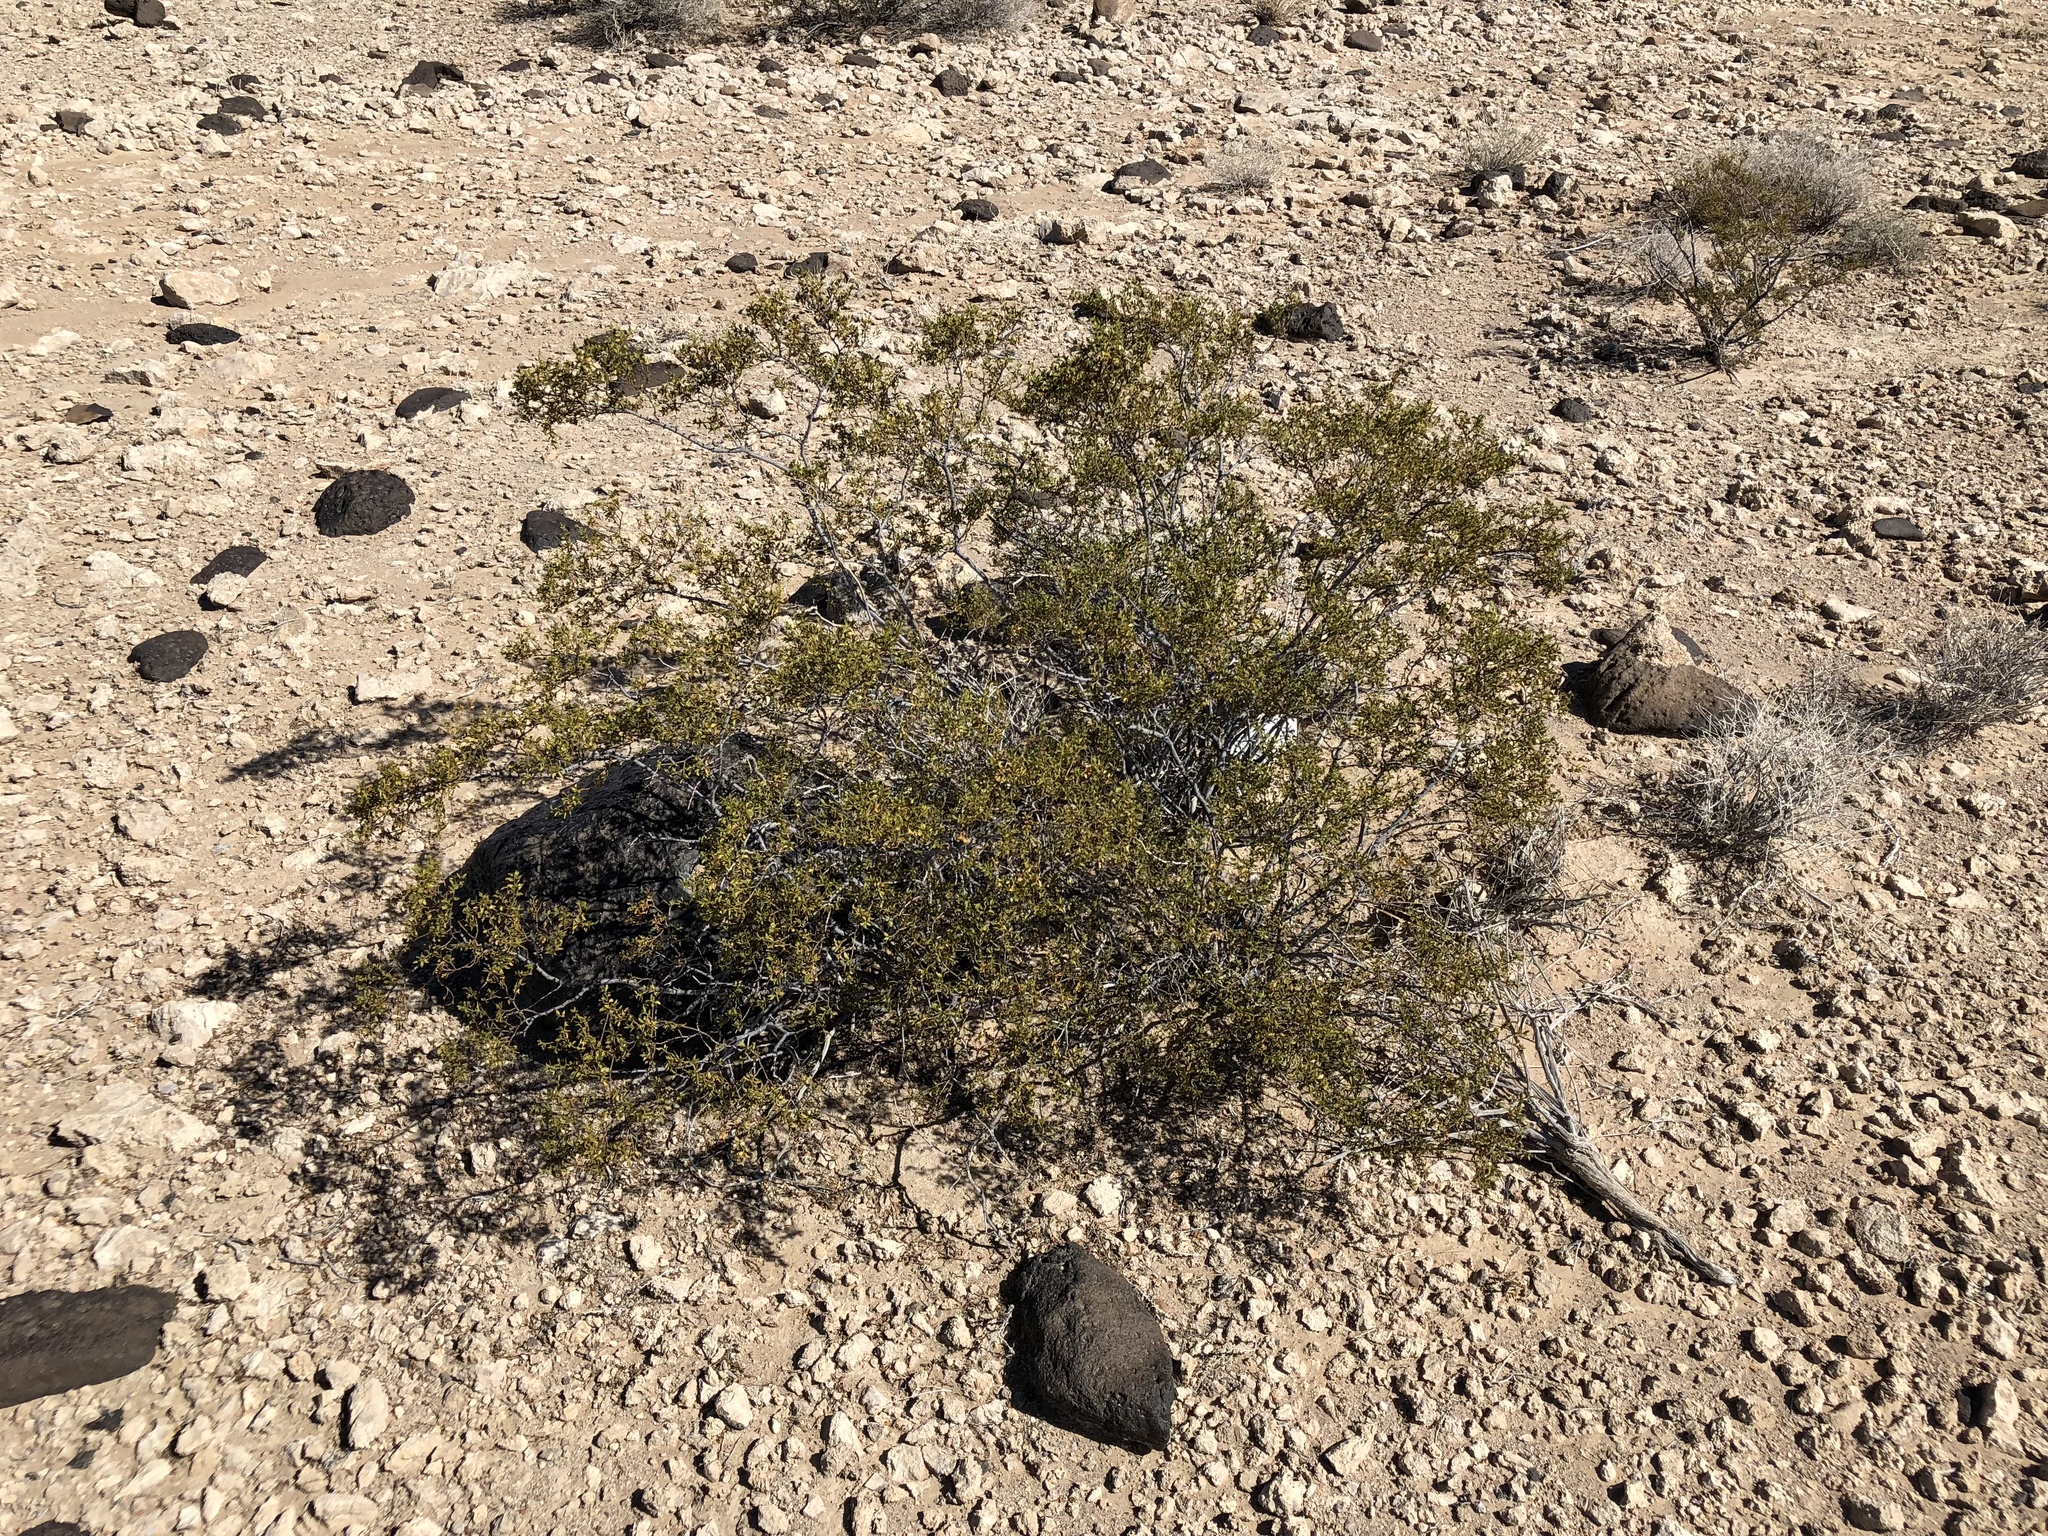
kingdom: Plantae
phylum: Tracheophyta
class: Magnoliopsida
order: Zygophyllales
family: Zygophyllaceae
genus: Larrea
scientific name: Larrea tridentata
